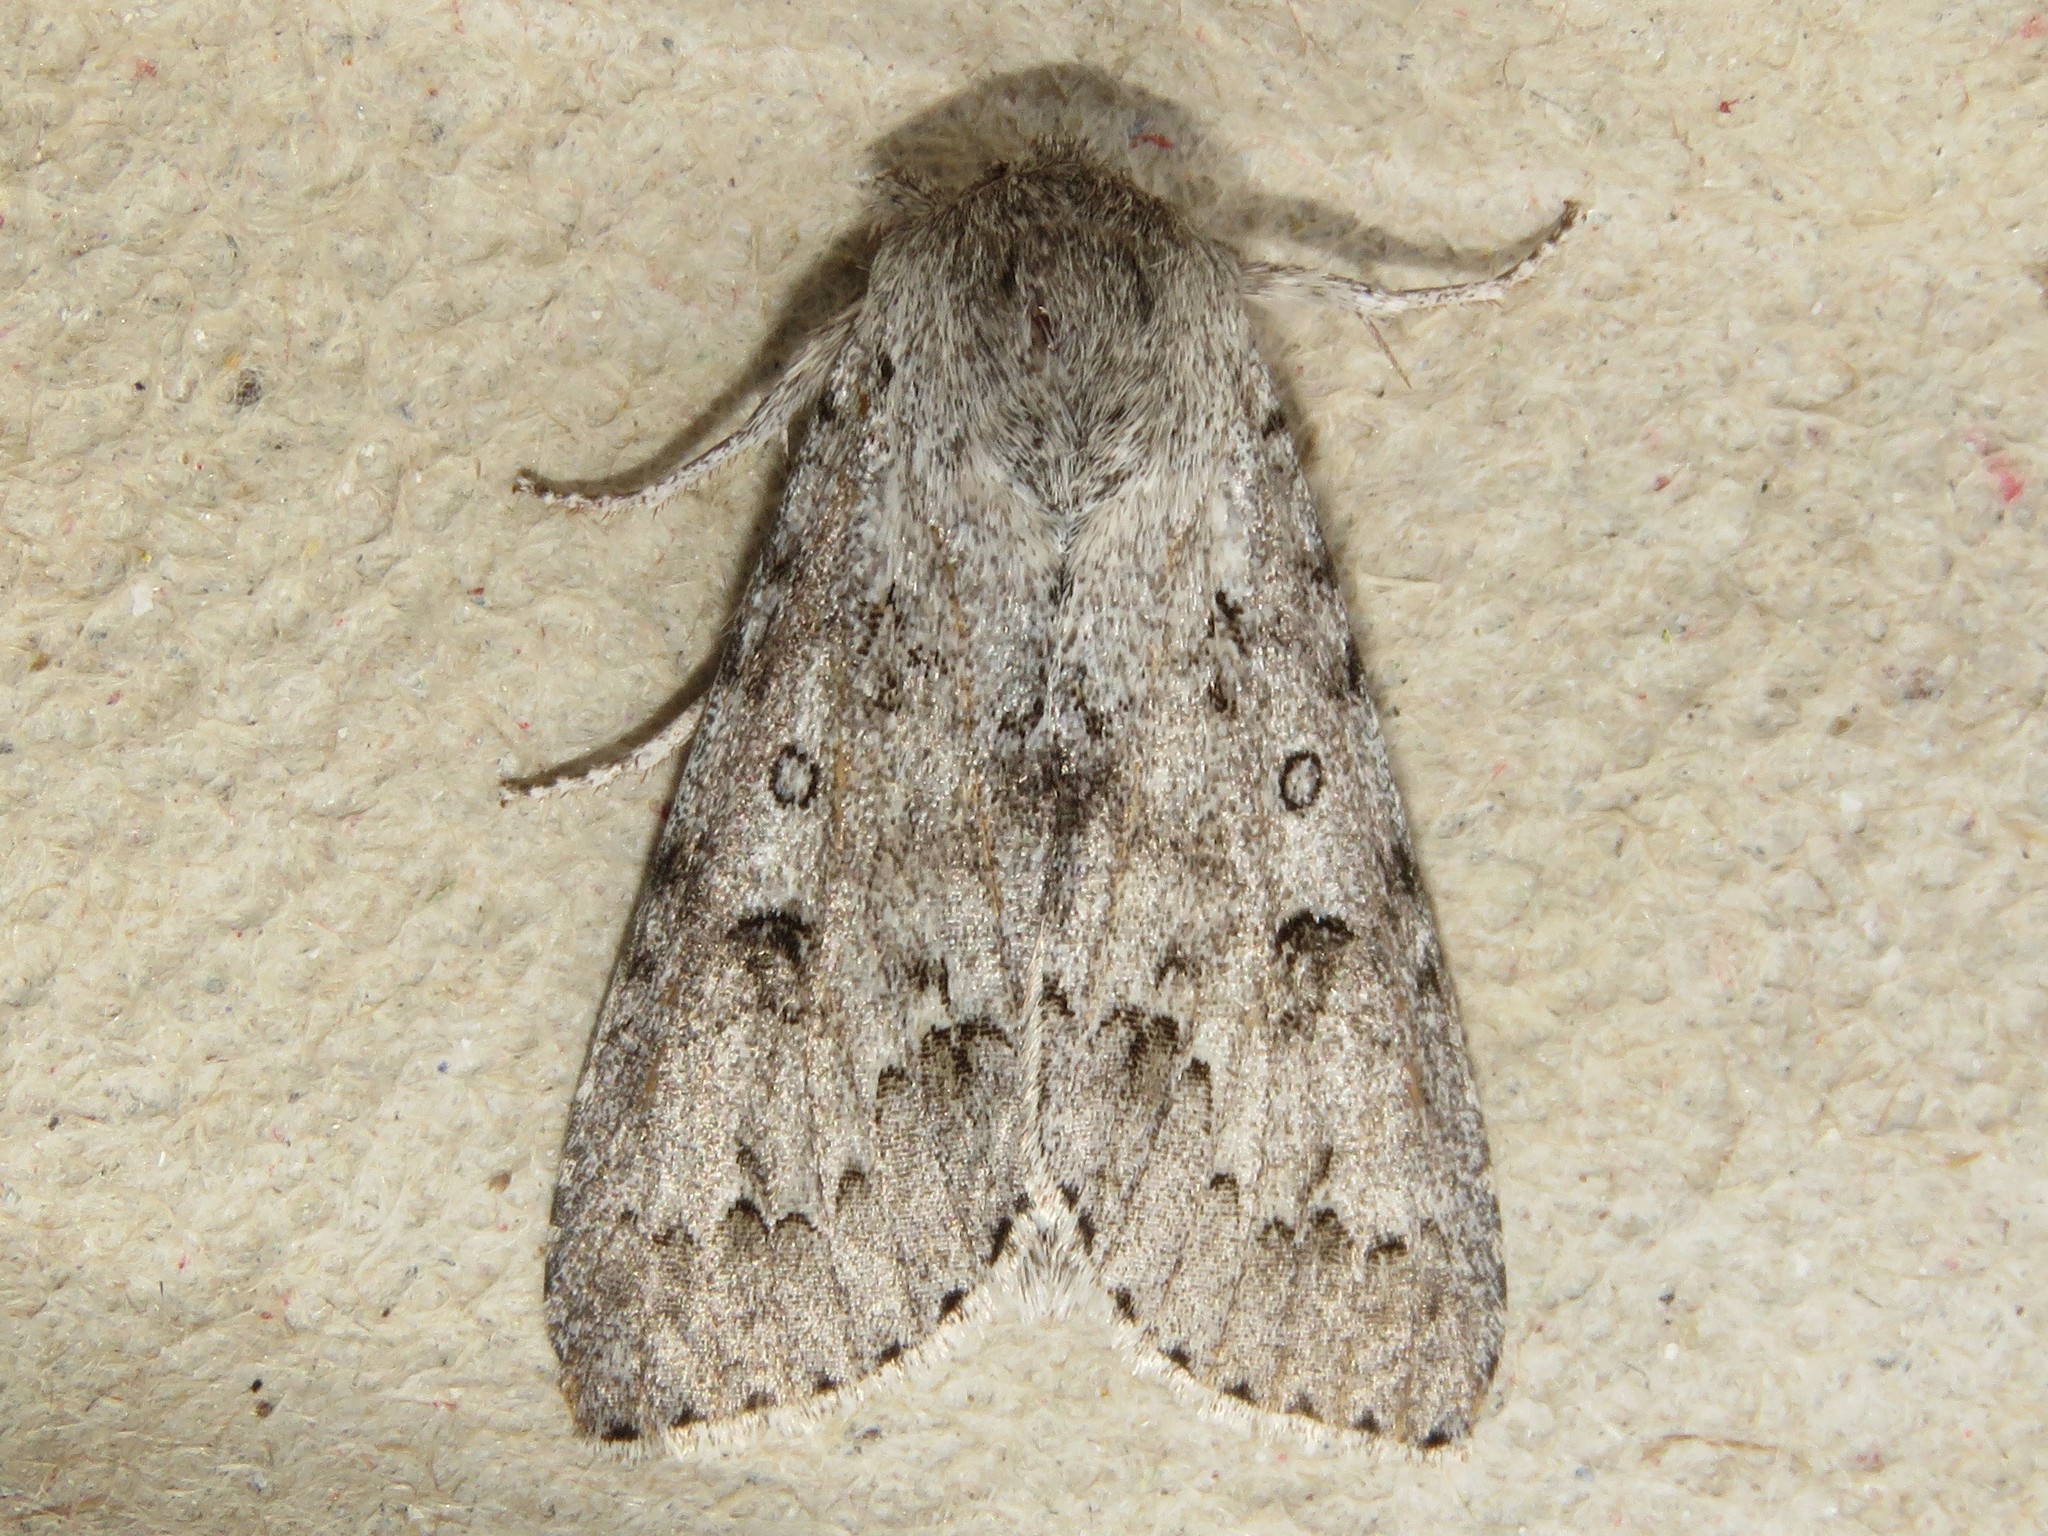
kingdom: Animalia
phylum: Arthropoda
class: Insecta
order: Lepidoptera
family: Noctuidae
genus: Acronicta
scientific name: Acronicta insita
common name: Large gray dagger
